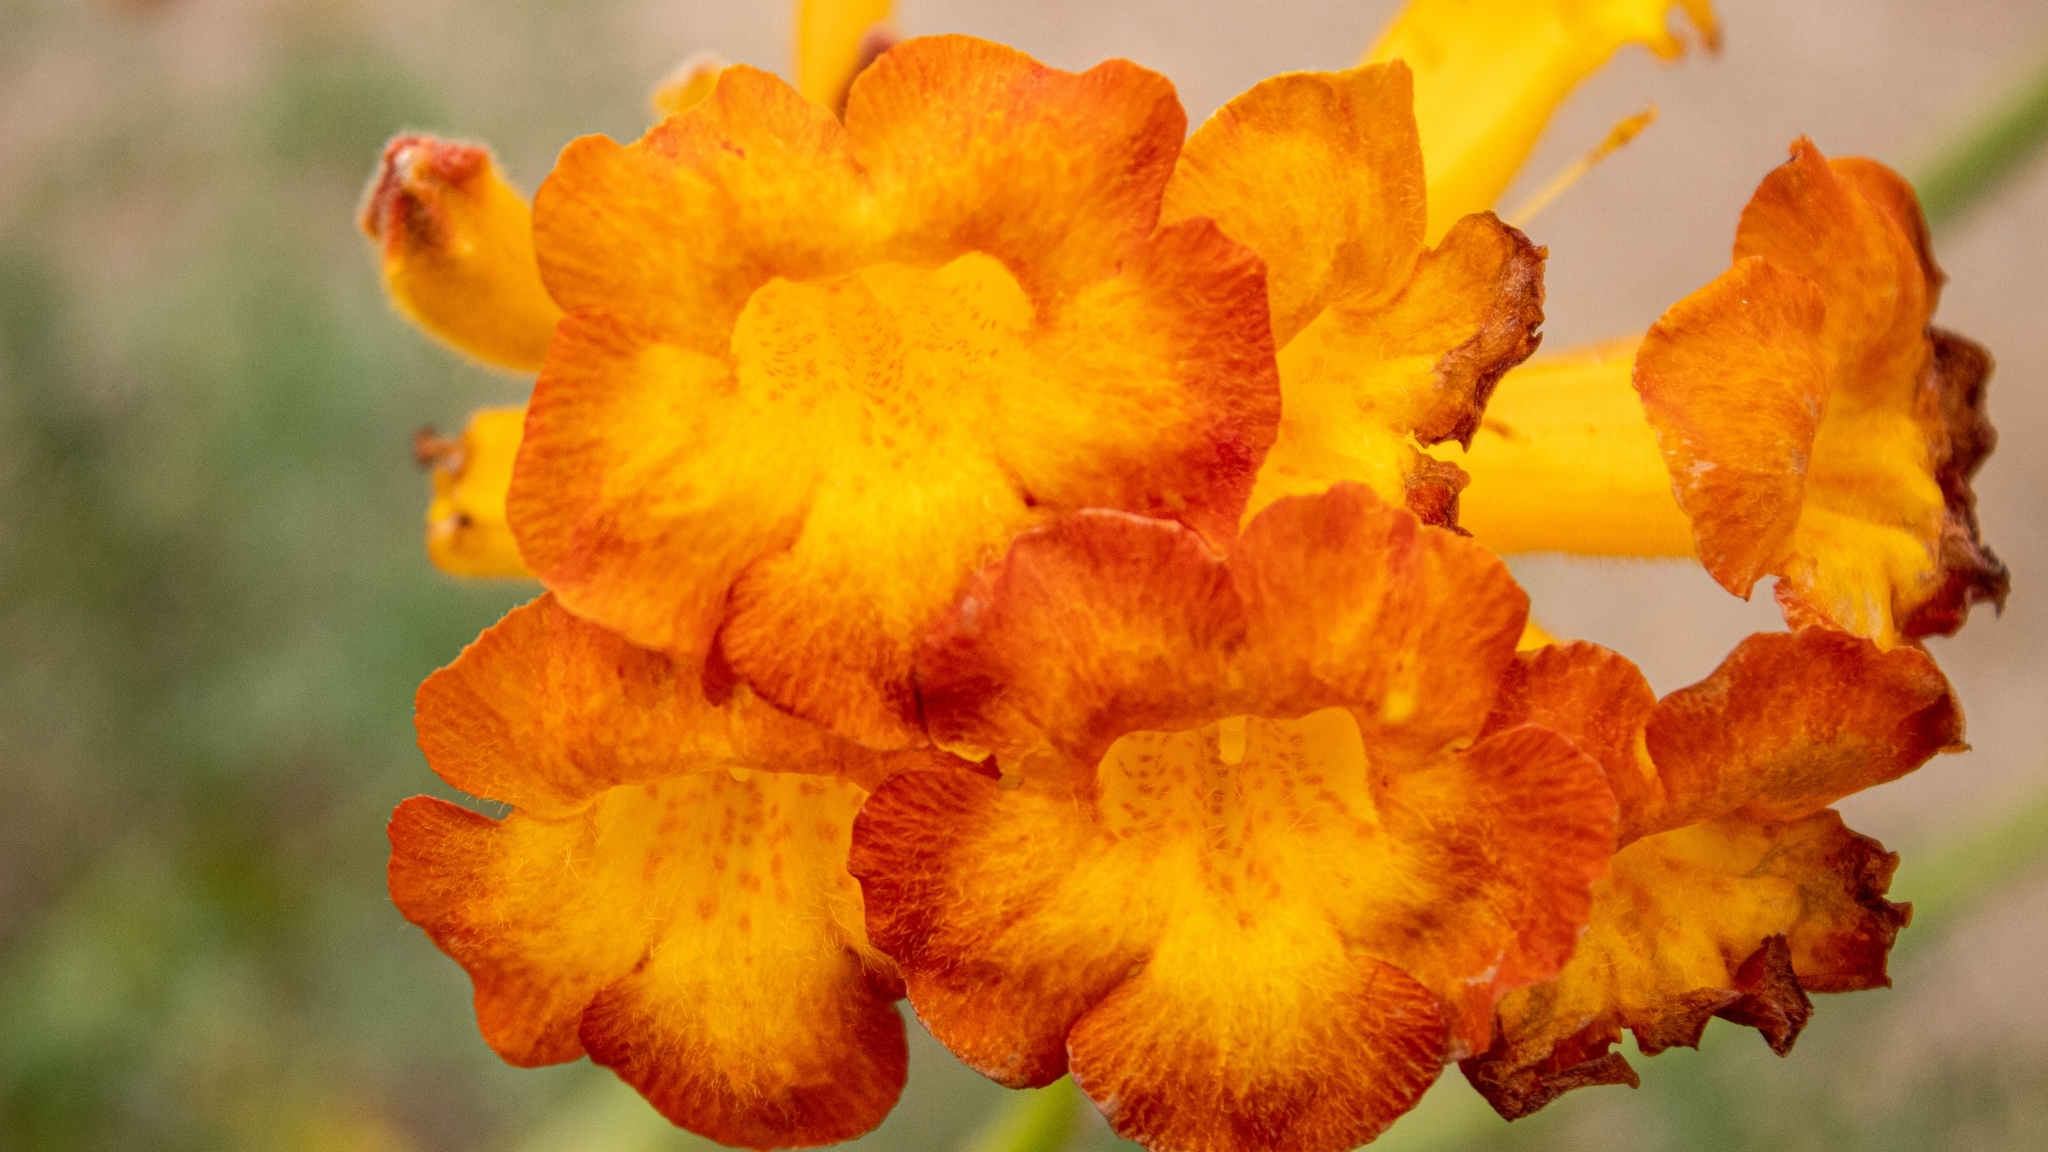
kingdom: Plantae
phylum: Tracheophyta
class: Magnoliopsida
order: Lamiales
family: Bignoniaceae
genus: Argylia
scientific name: Argylia radiata
